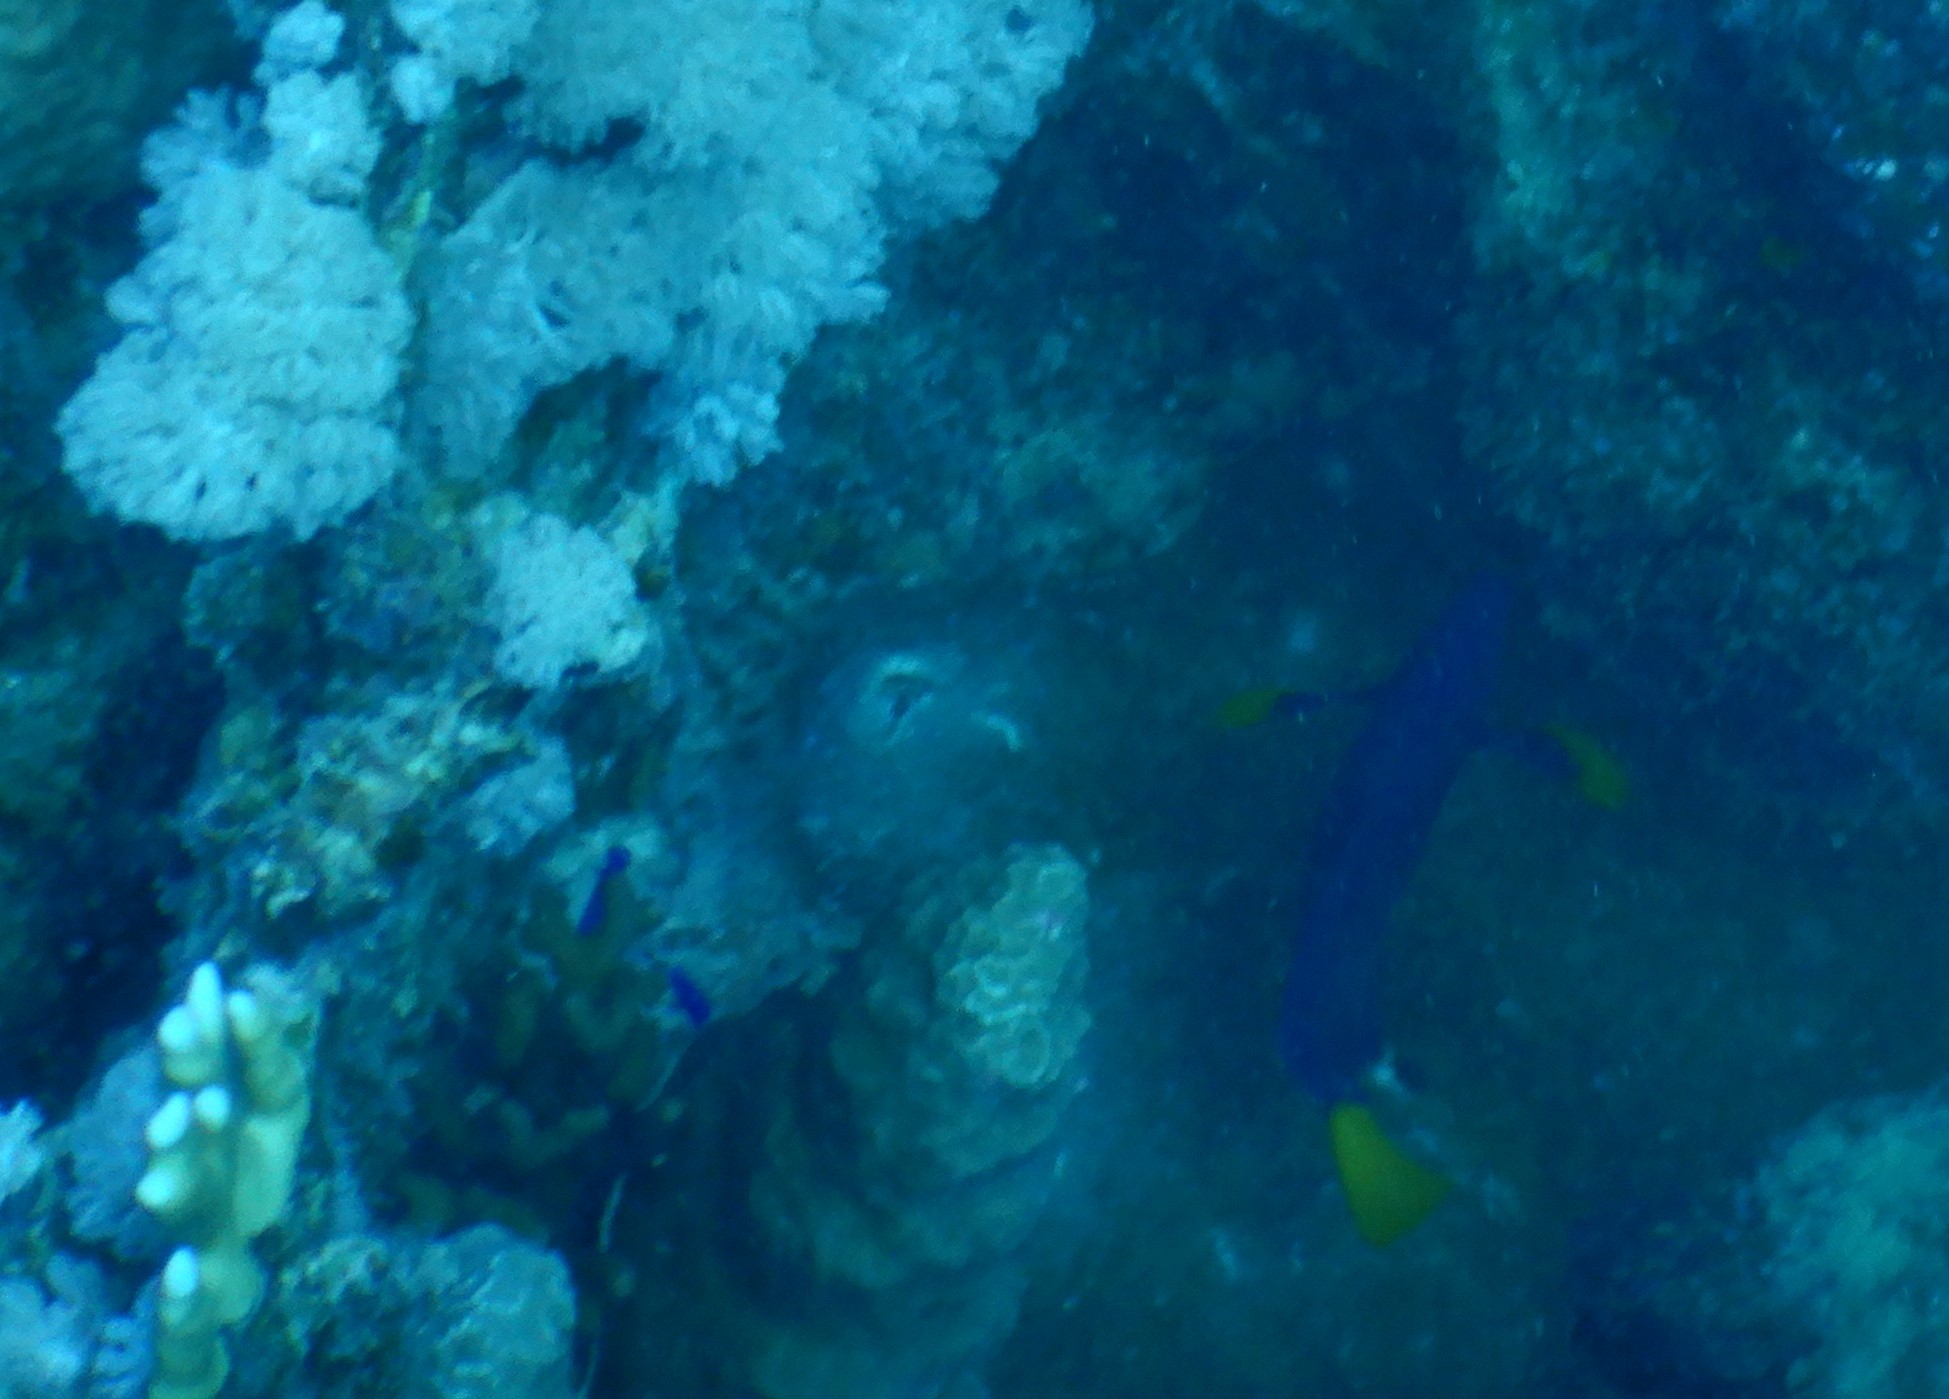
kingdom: Animalia
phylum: Chordata
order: Perciformes
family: Acanthuridae
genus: Zebrasoma
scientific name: Zebrasoma xanthurum
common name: Purple tang
